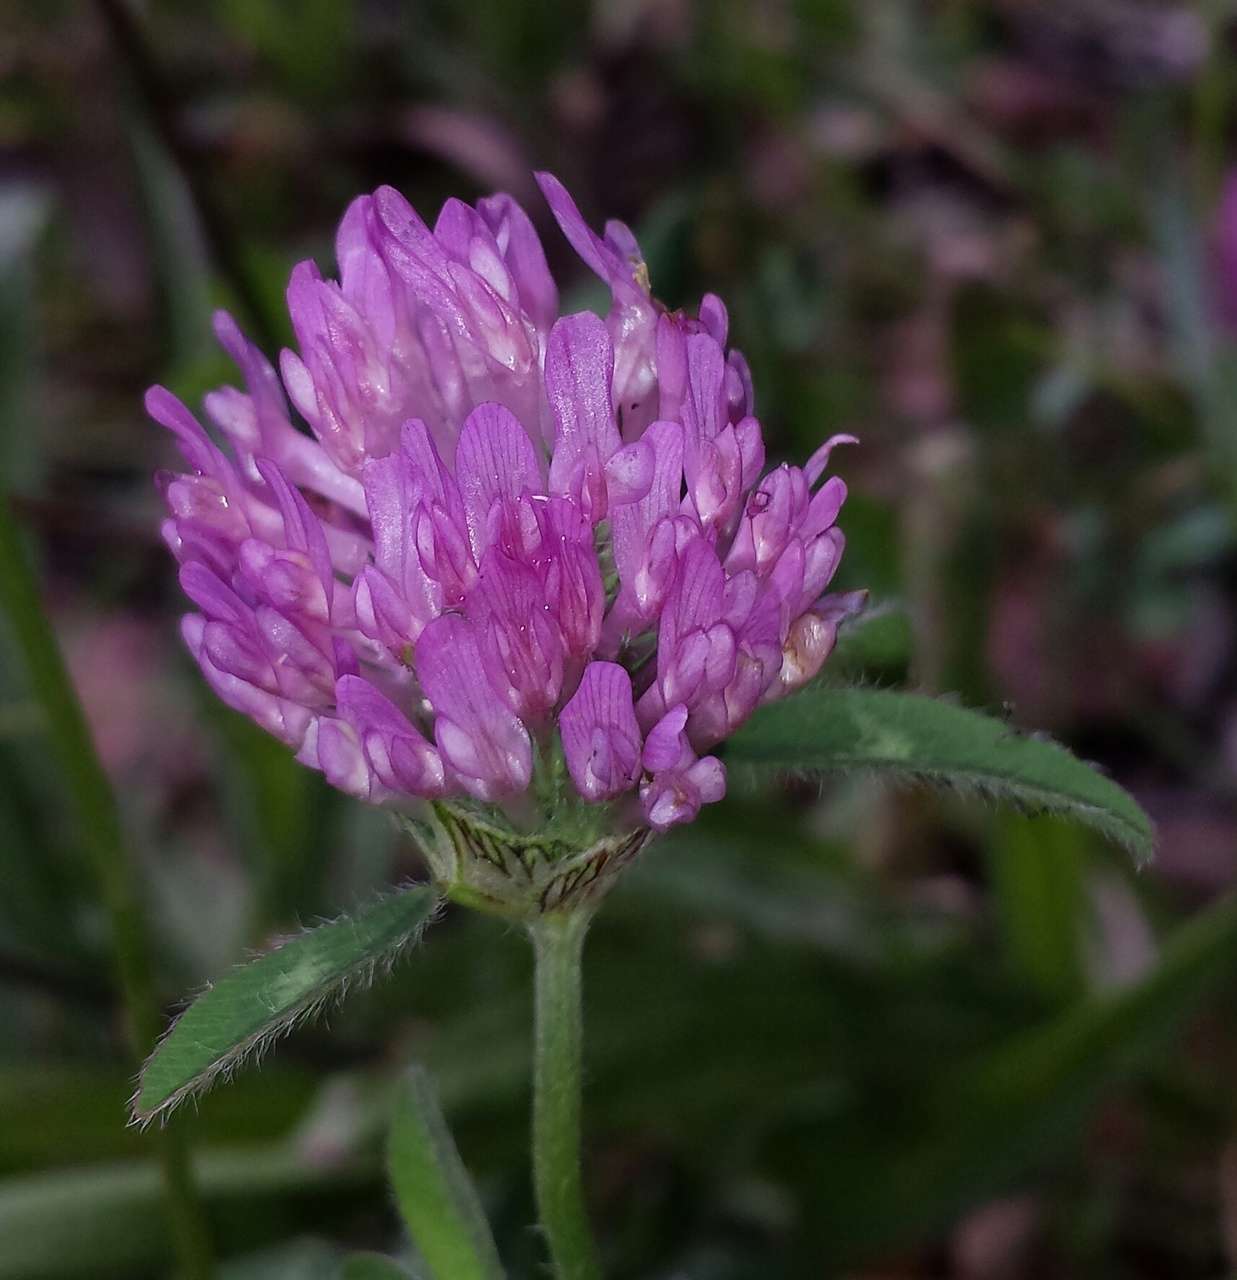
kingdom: Plantae
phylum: Tracheophyta
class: Magnoliopsida
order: Fabales
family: Fabaceae
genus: Trifolium
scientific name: Trifolium pratense
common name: Red clover
